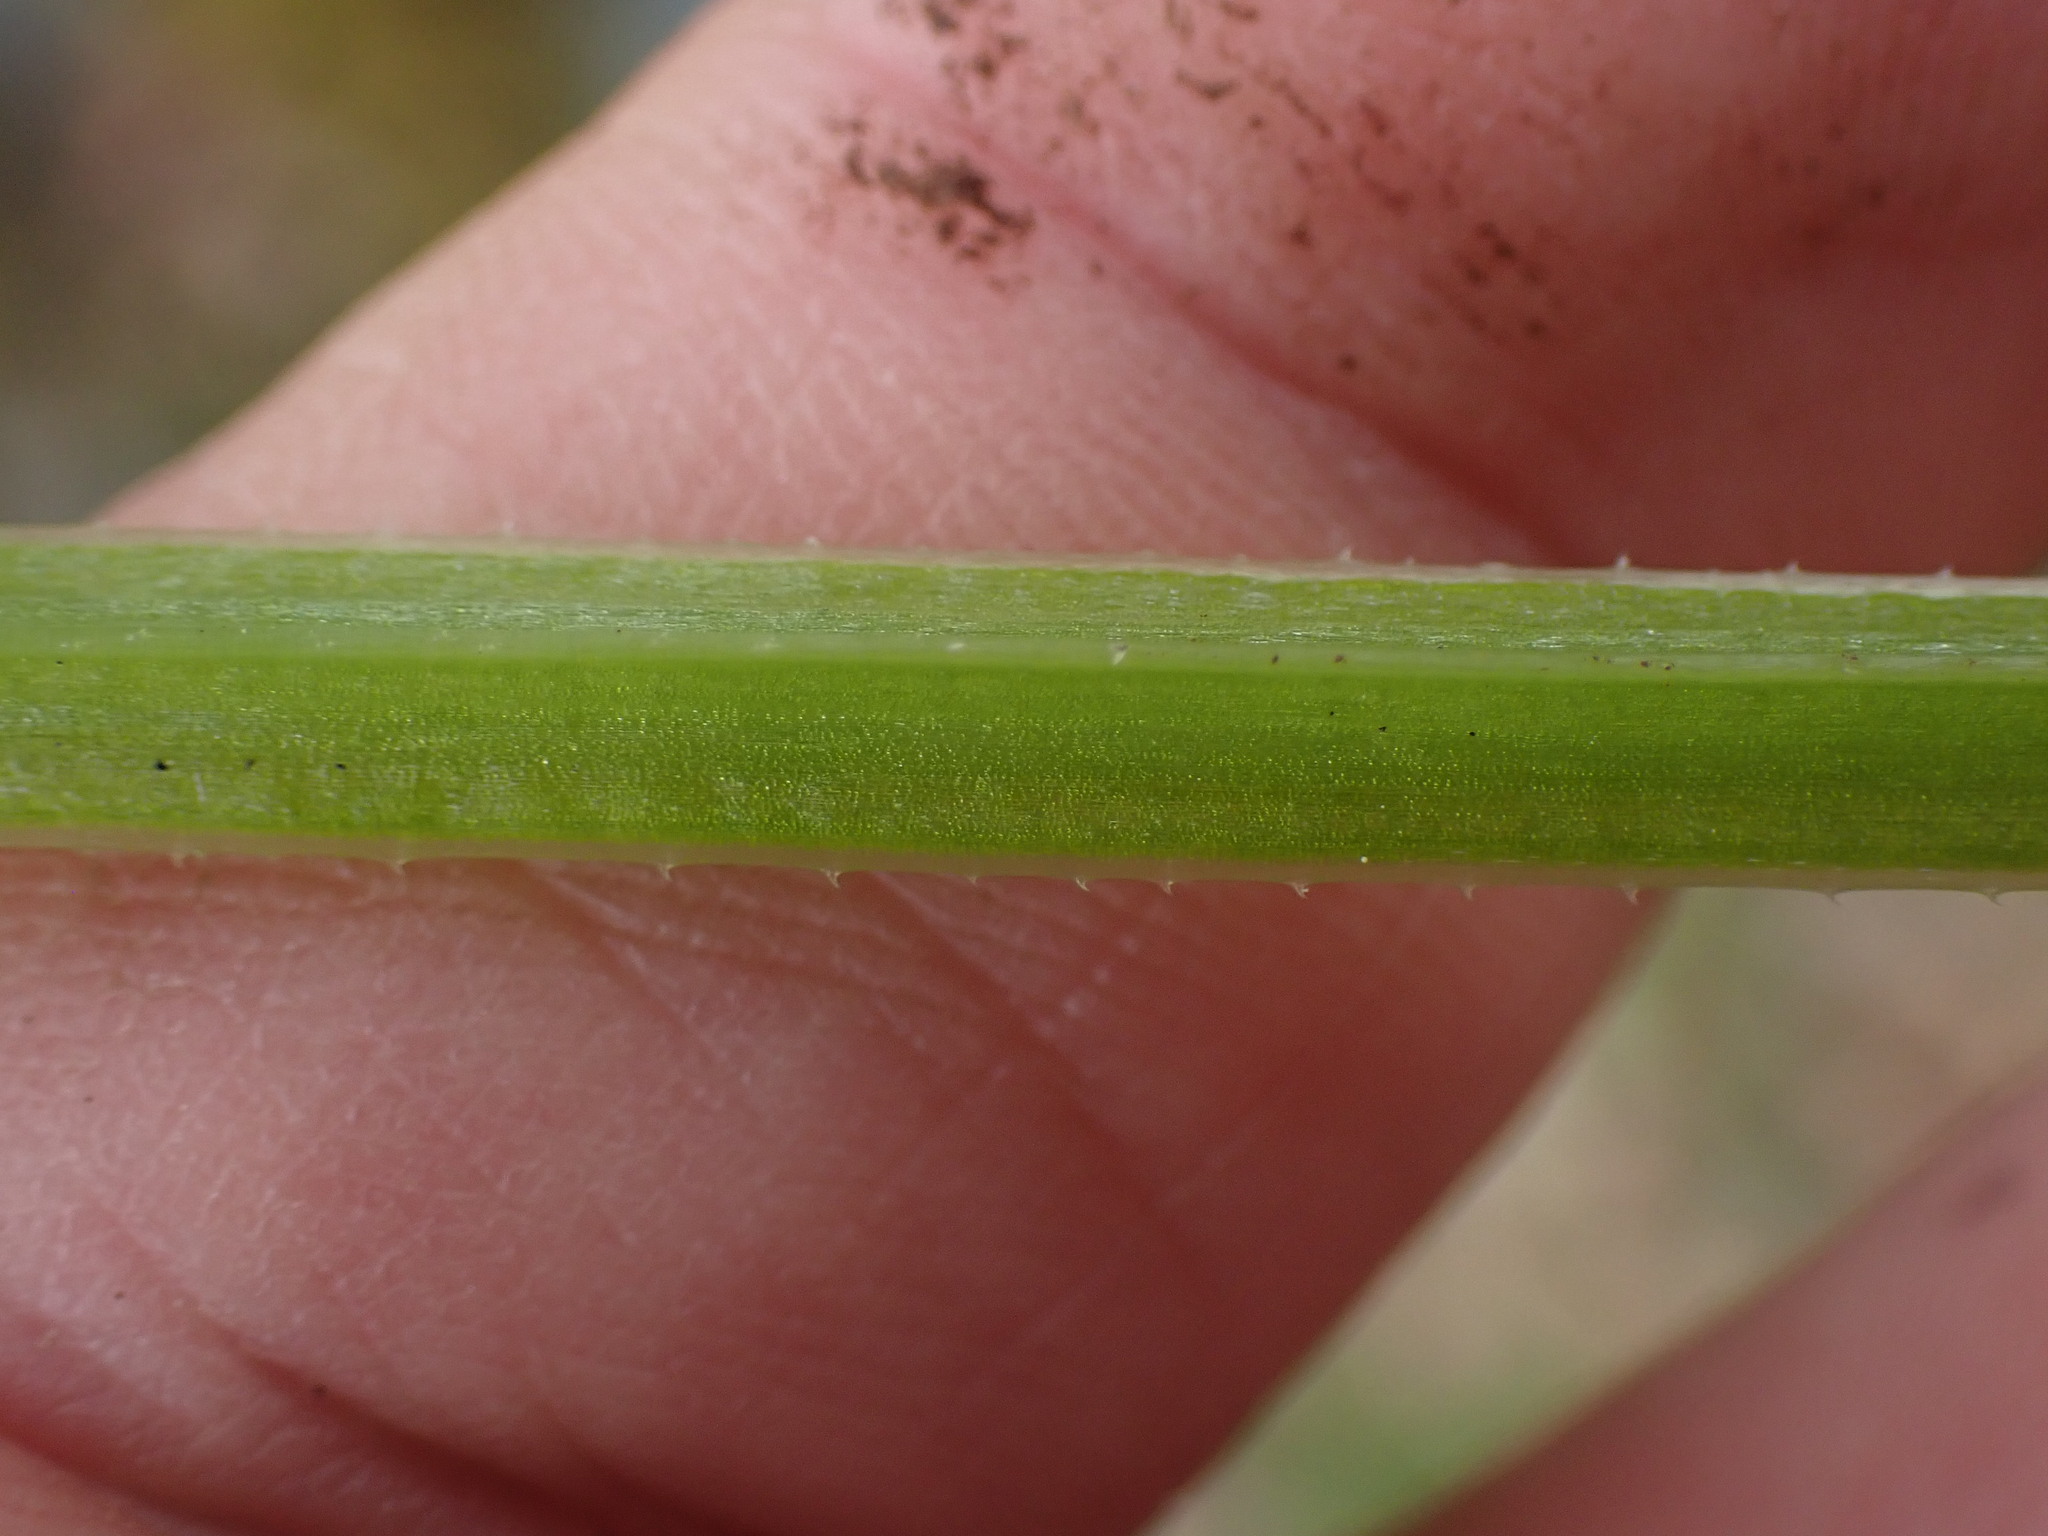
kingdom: Plantae
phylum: Tracheophyta
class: Magnoliopsida
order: Gentianales
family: Rubiaceae
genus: Galium
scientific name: Galium aparine
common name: Cleavers
